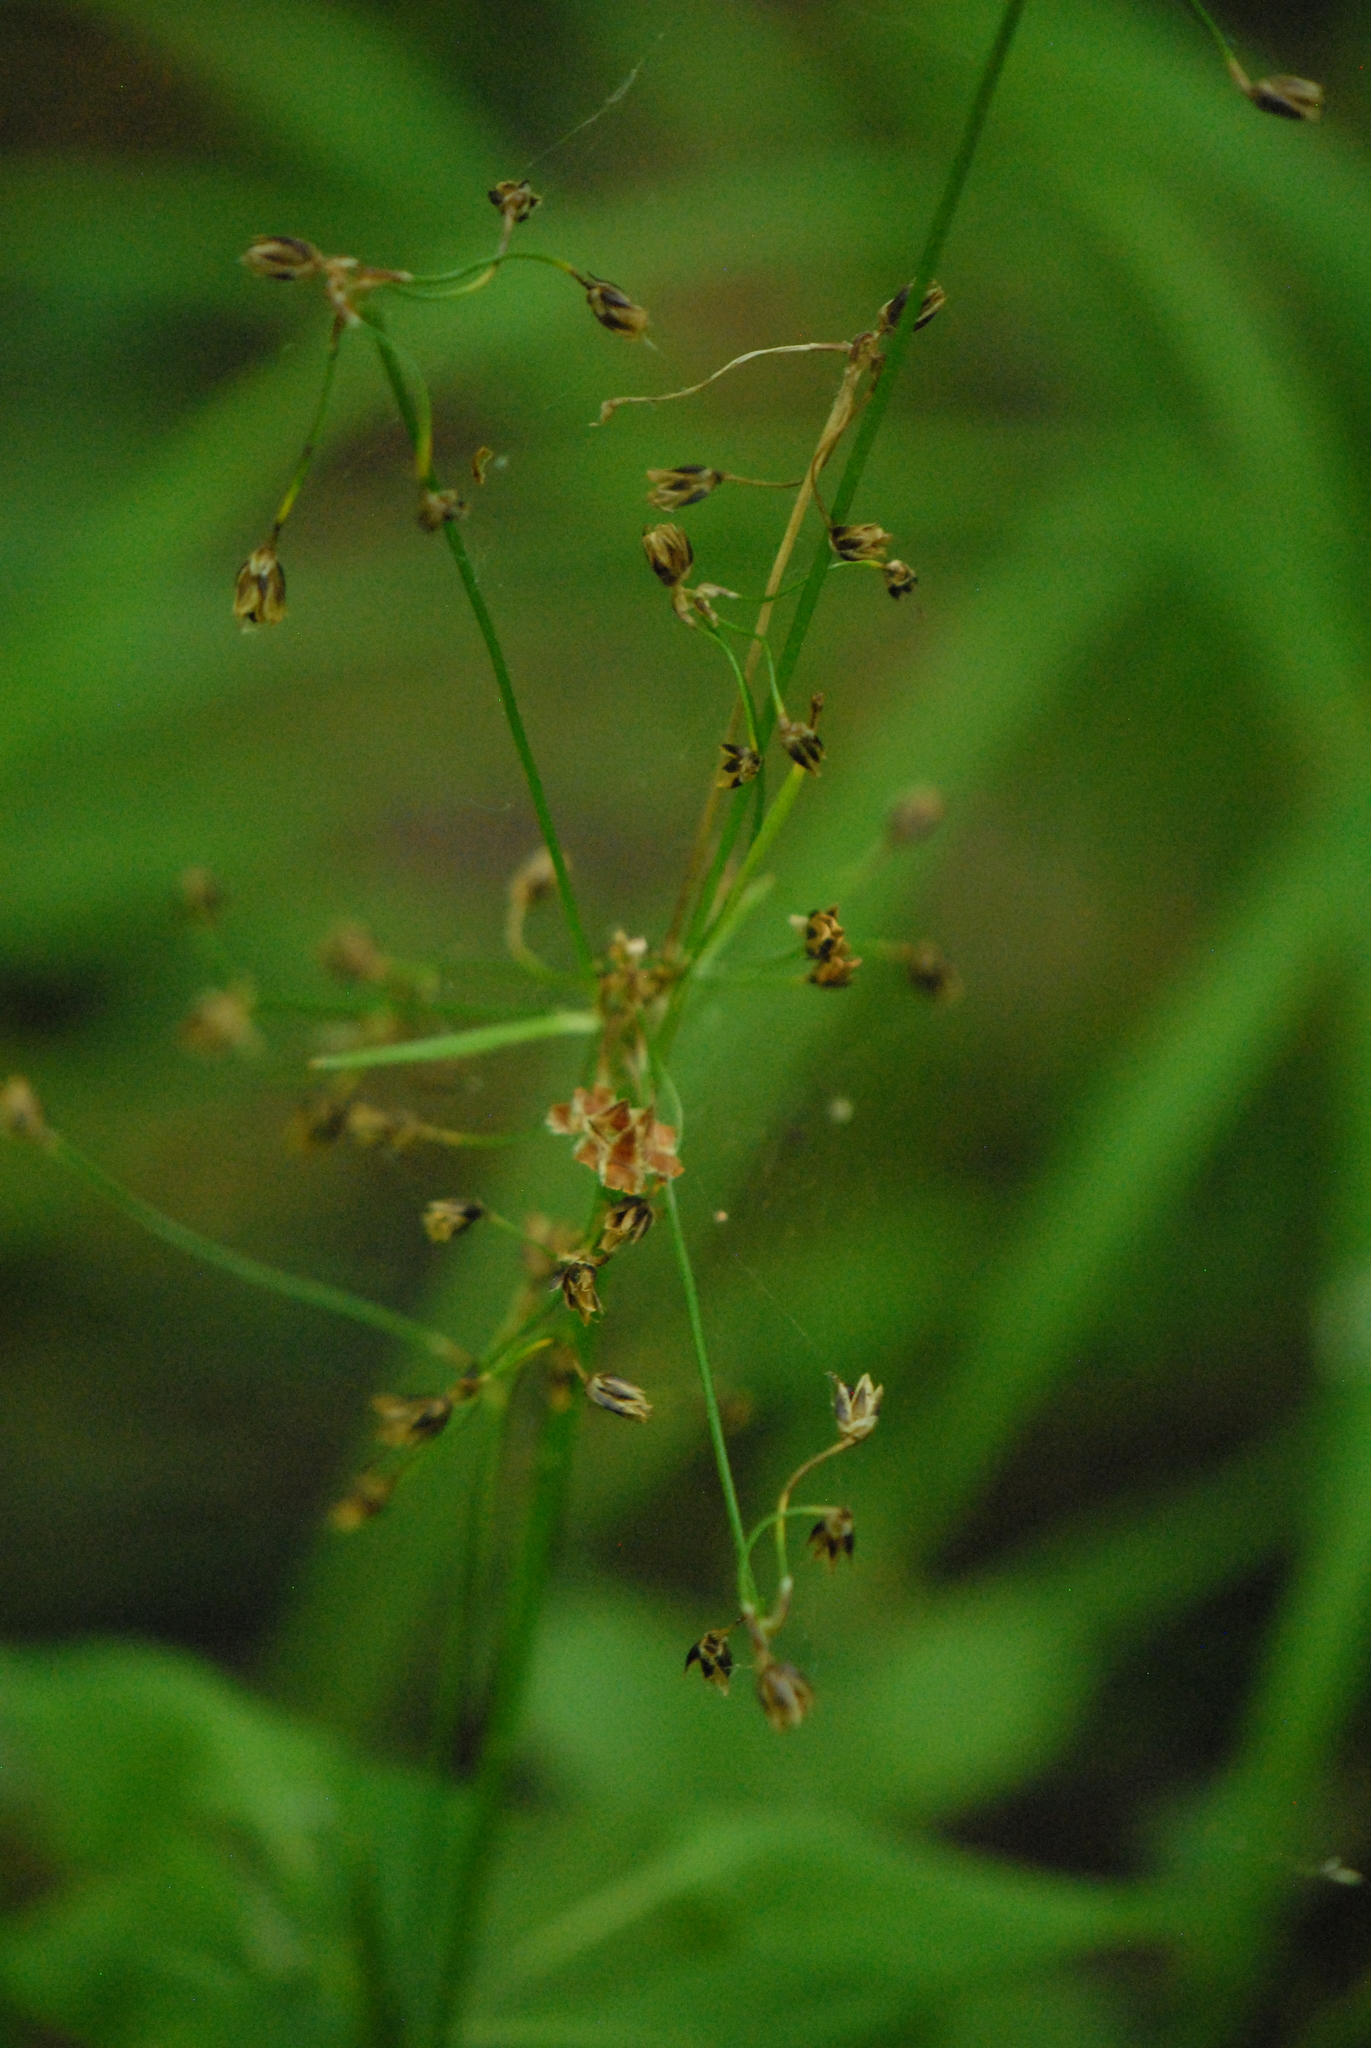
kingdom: Plantae
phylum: Tracheophyta
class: Liliopsida
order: Poales
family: Juncaceae
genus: Luzula
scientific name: Luzula pilosa
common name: Hairy wood-rush
